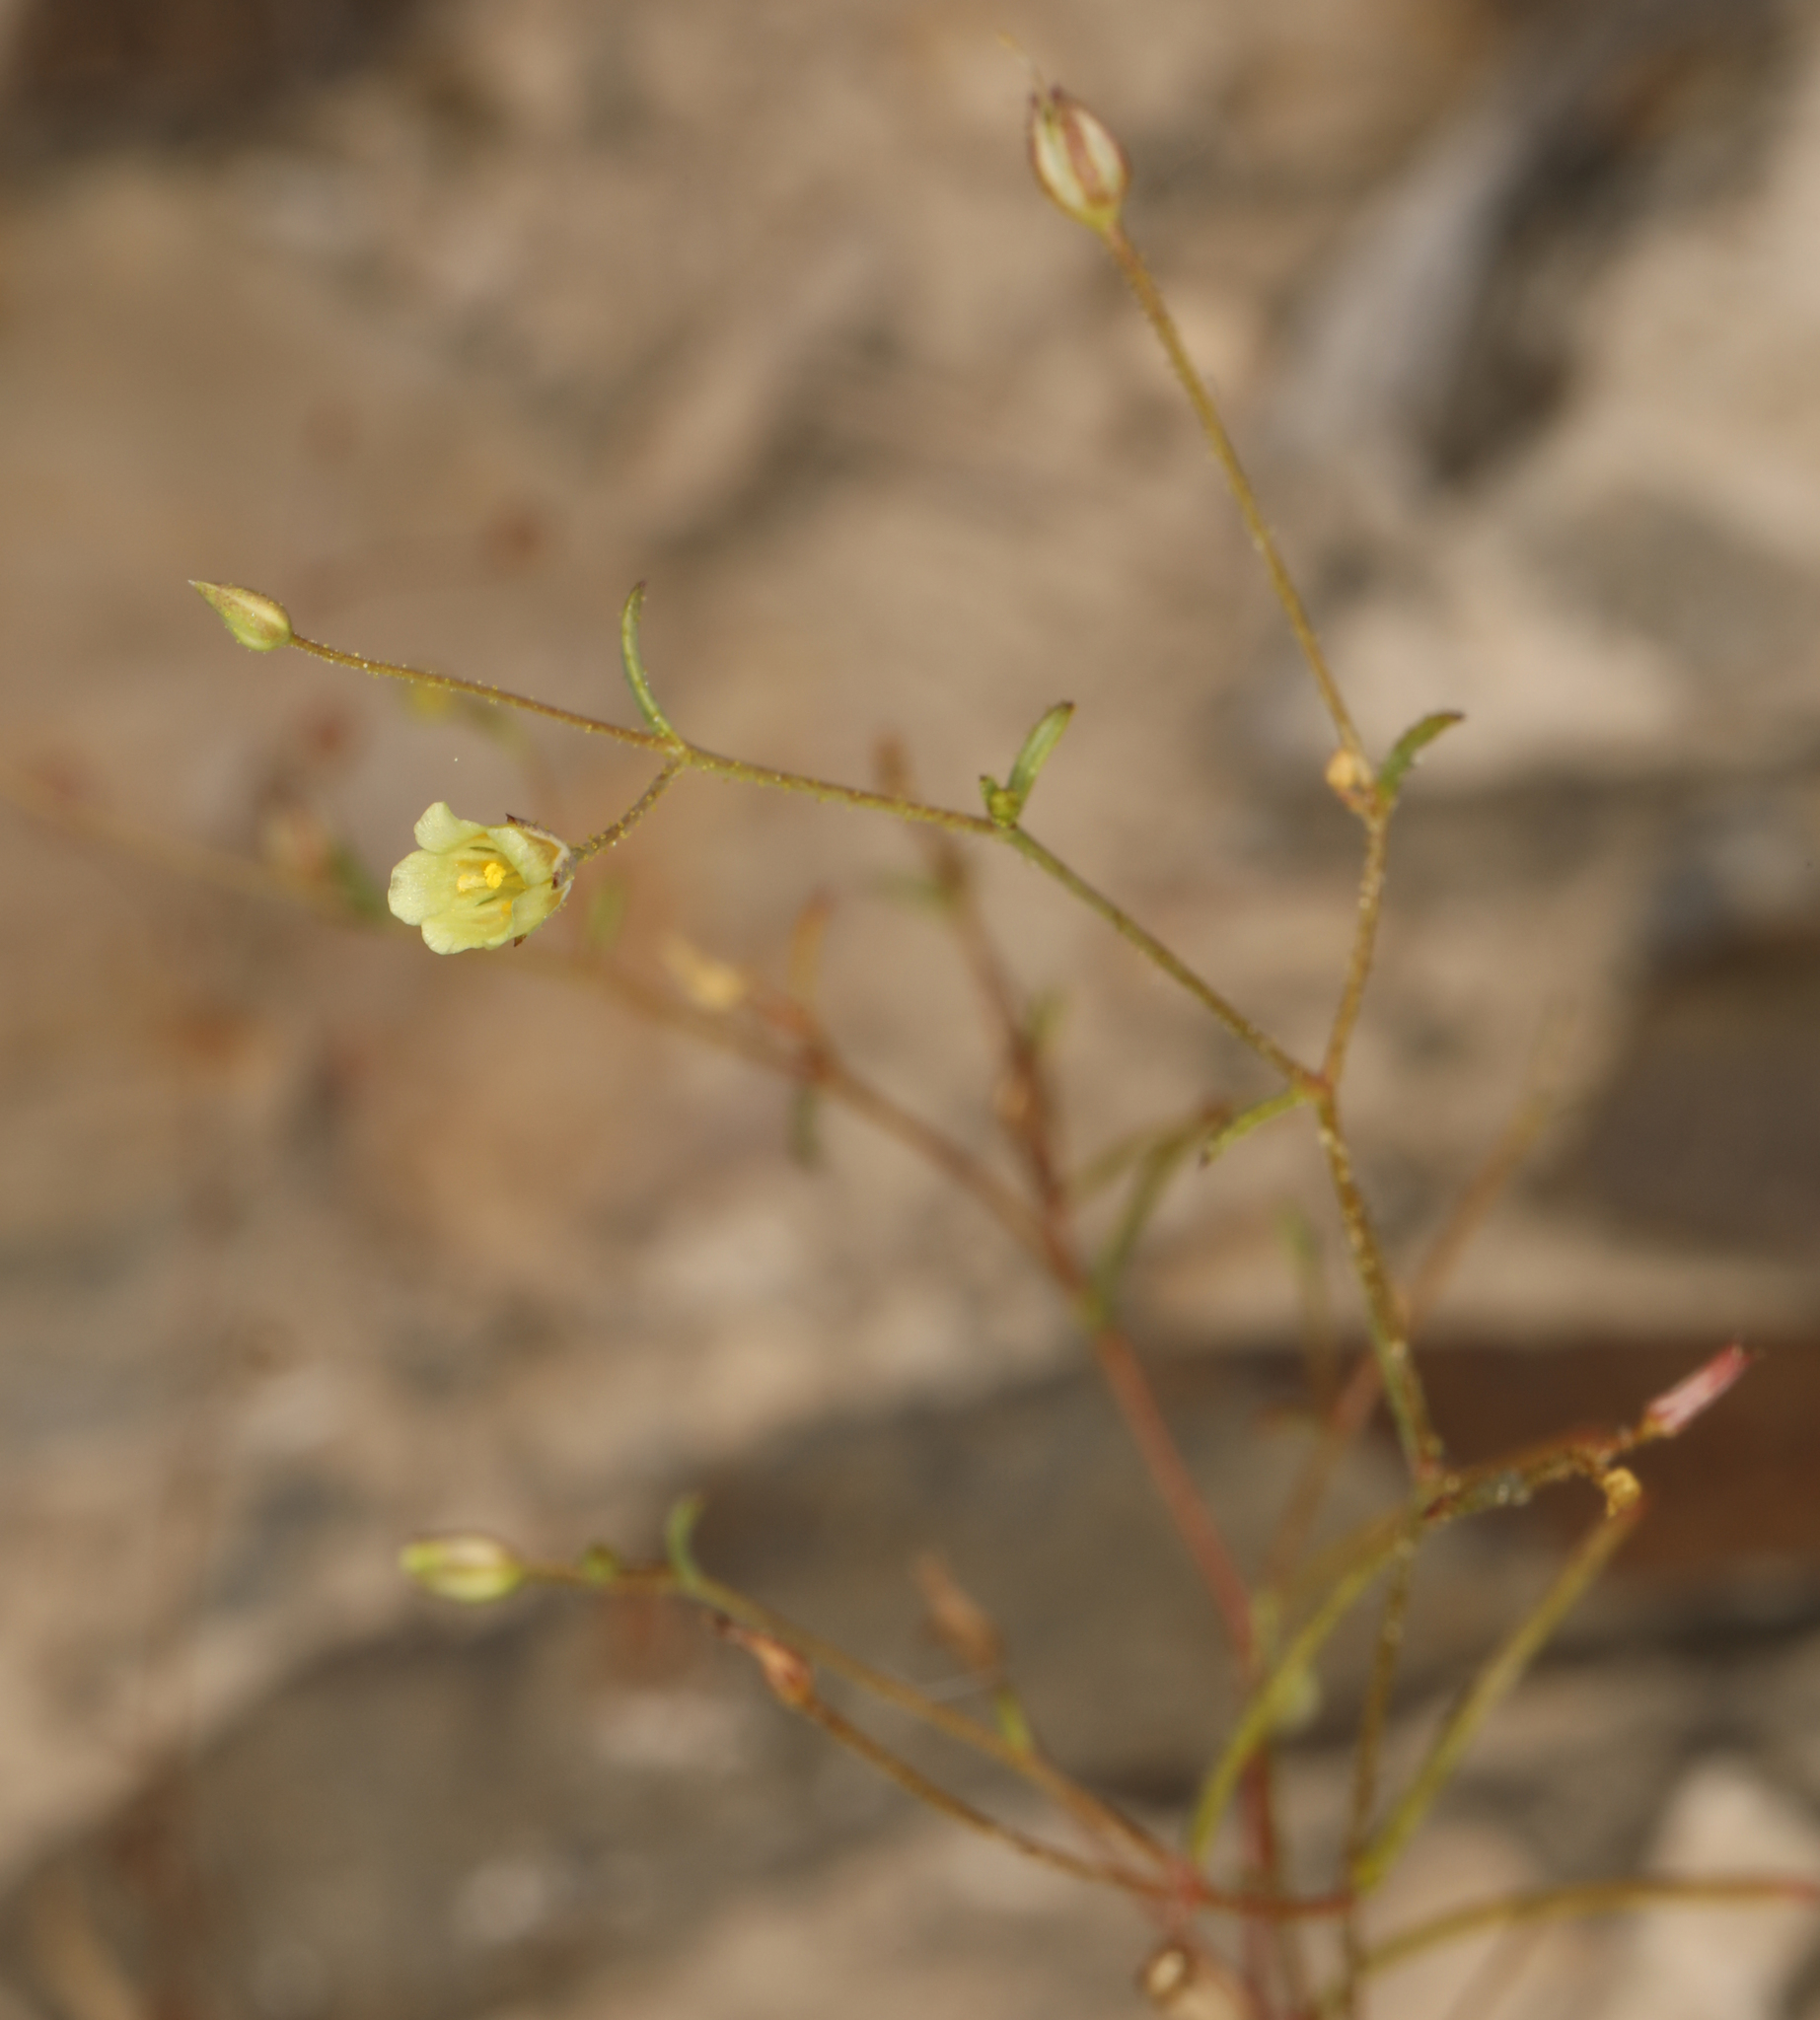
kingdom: Plantae
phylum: Tracheophyta
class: Magnoliopsida
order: Ericales
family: Polemoniaceae
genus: Linanthus
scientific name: Linanthus filiformis
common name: Yellow gilia
